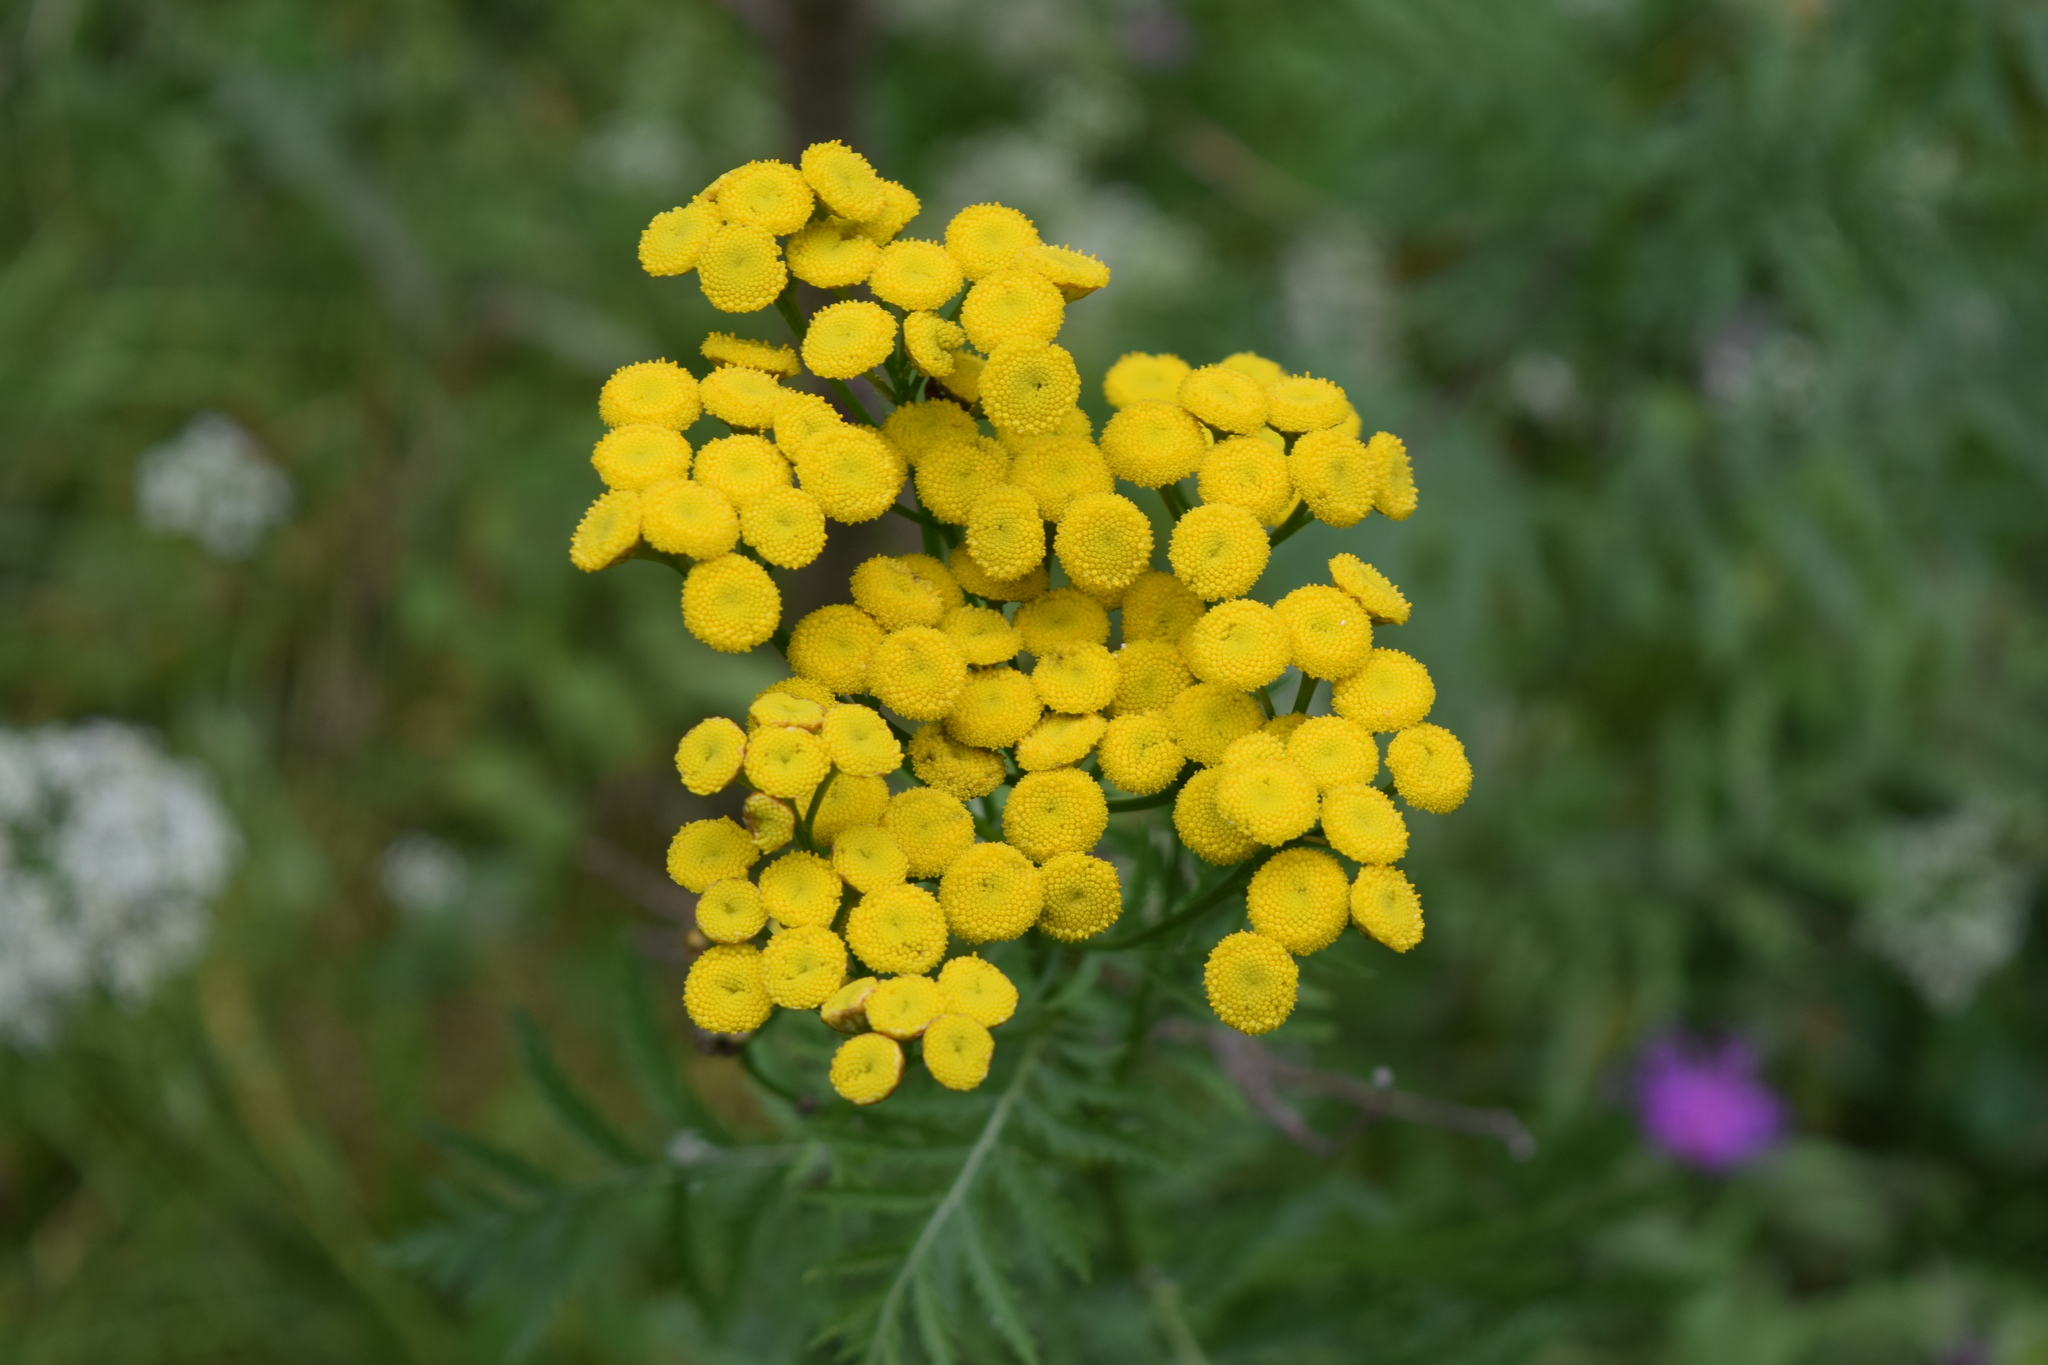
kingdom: Plantae
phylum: Tracheophyta
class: Magnoliopsida
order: Asterales
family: Asteraceae
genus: Tanacetum
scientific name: Tanacetum vulgare
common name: Common tansy
